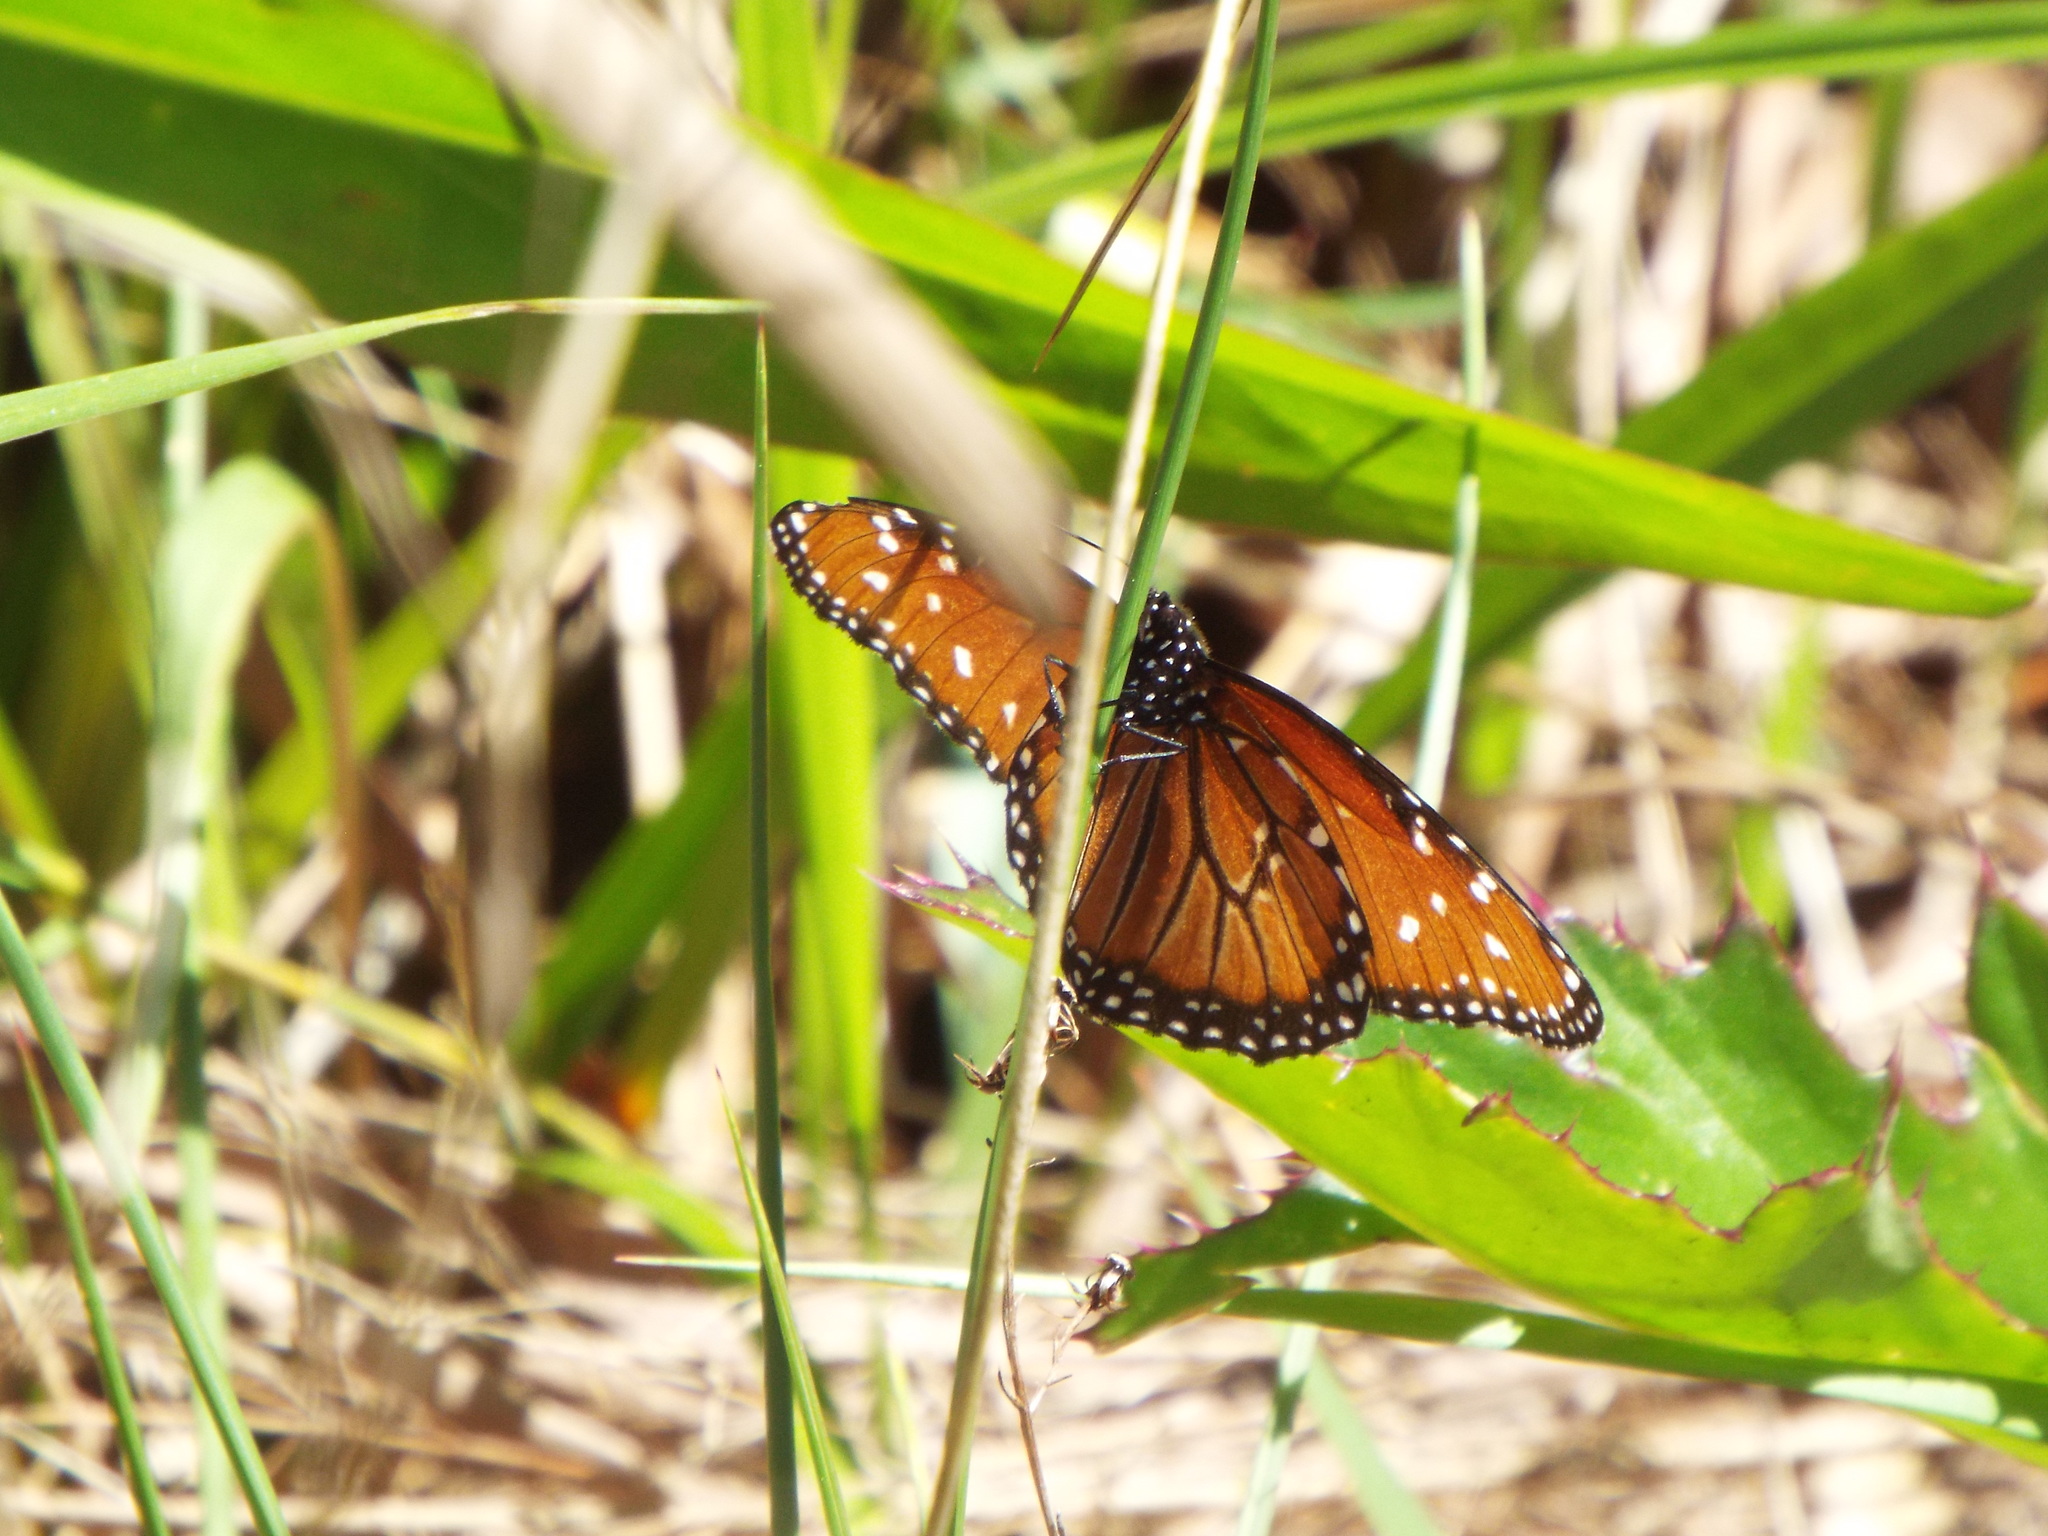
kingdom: Animalia
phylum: Arthropoda
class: Insecta
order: Lepidoptera
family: Nymphalidae
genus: Danaus
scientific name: Danaus gilippus
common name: Queen
